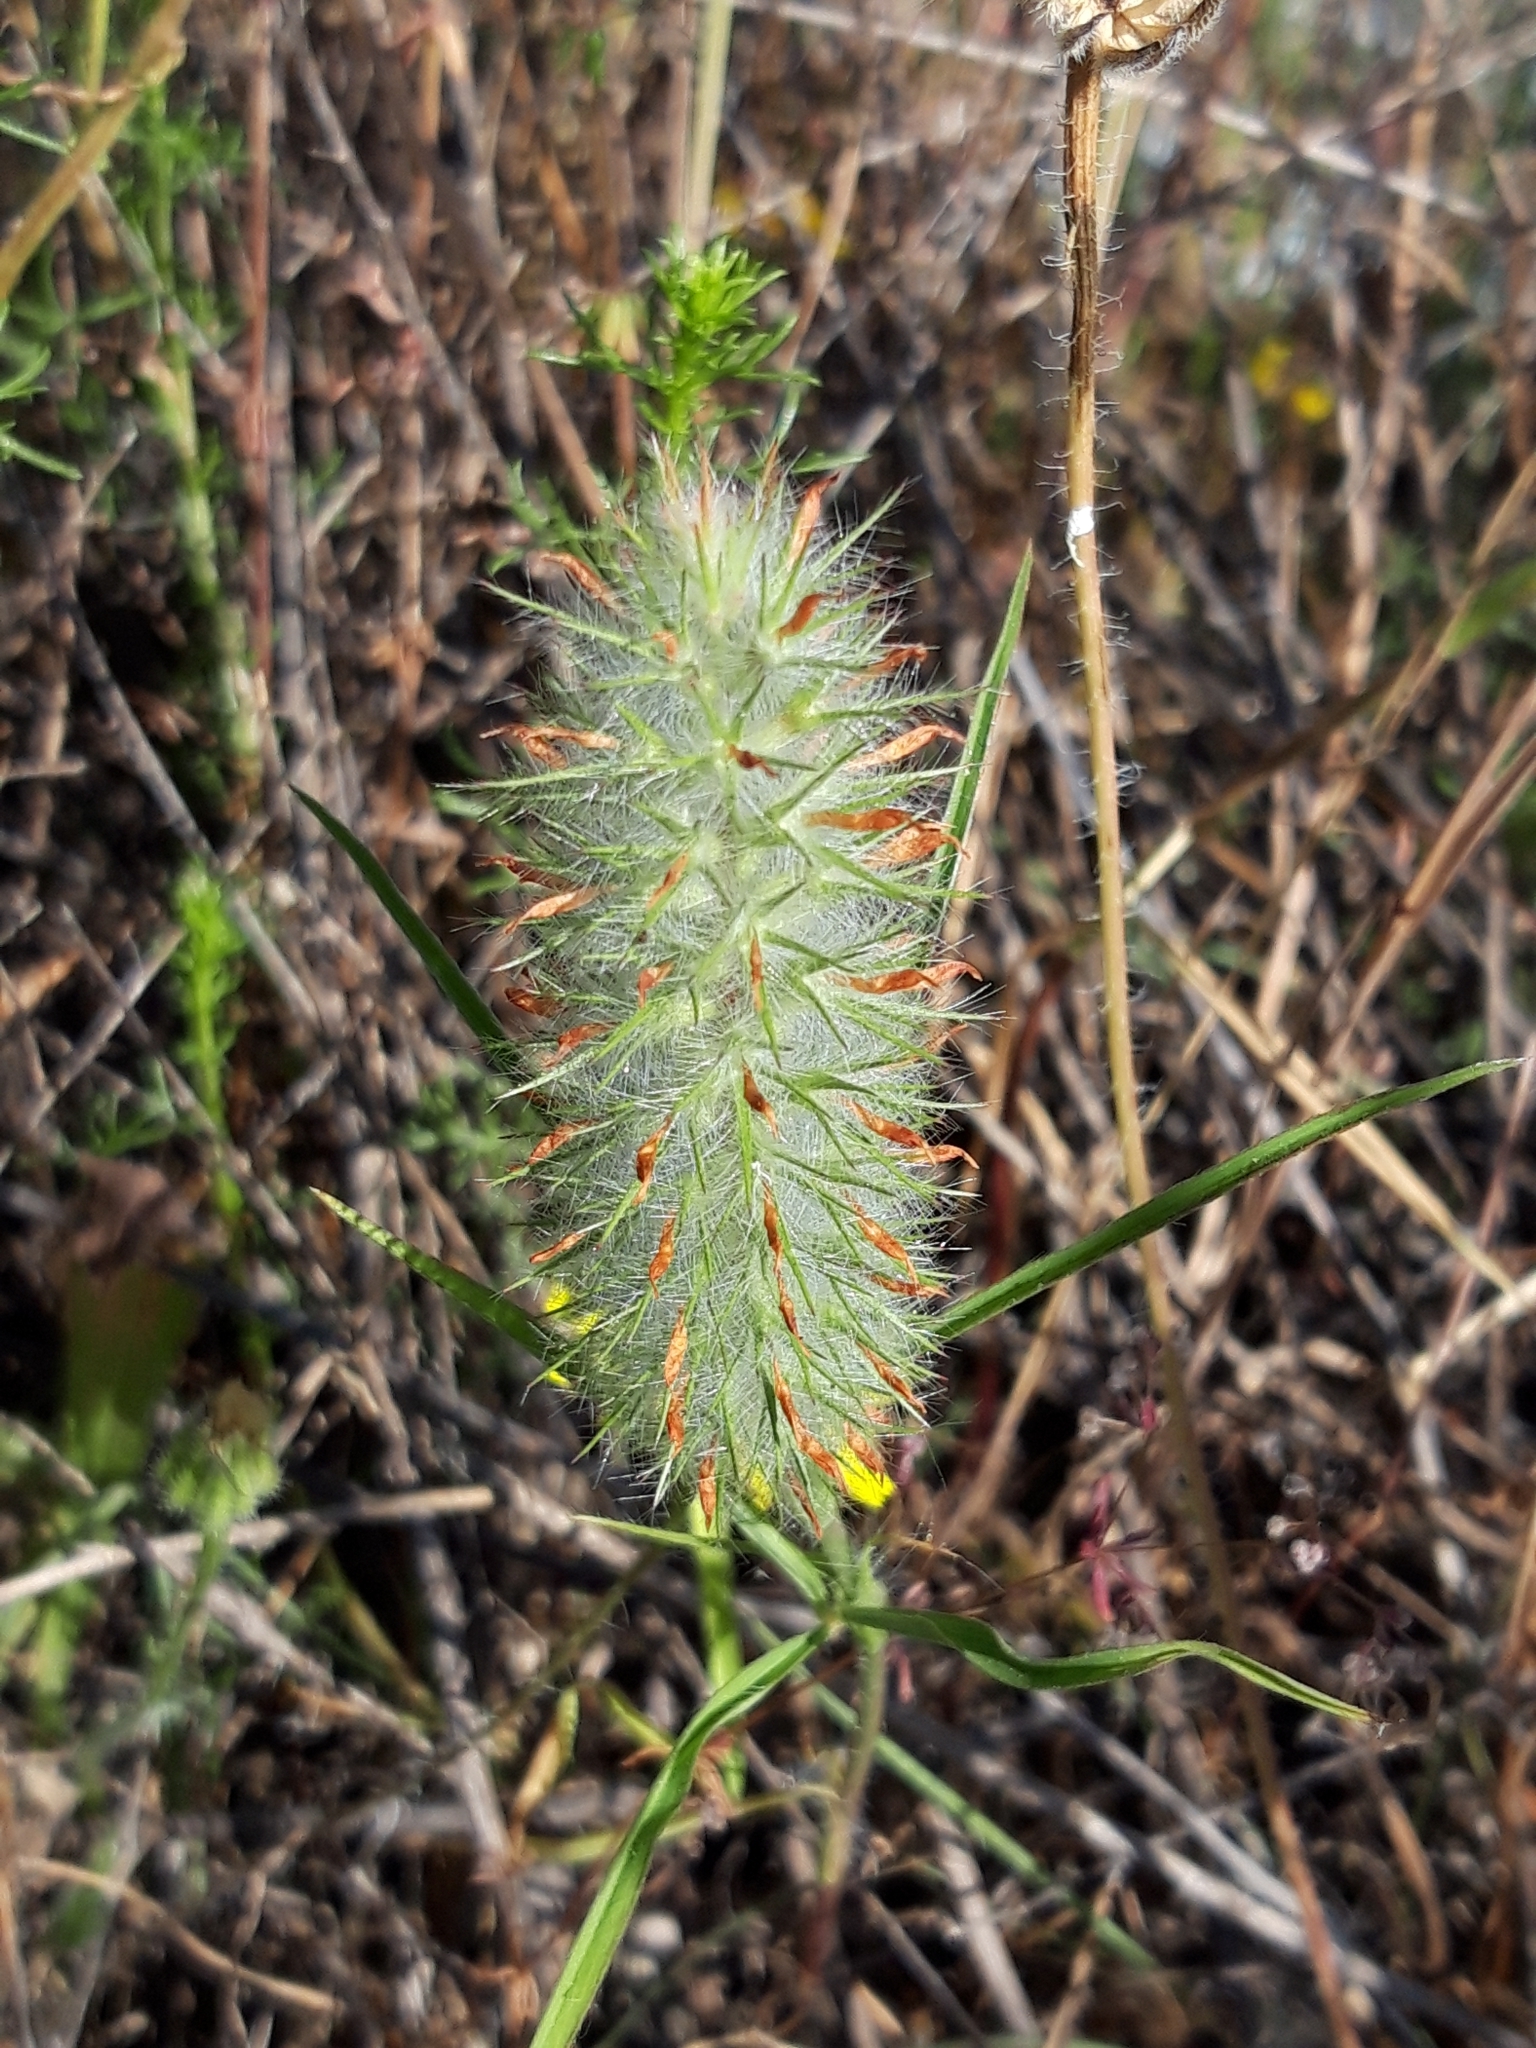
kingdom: Plantae
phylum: Tracheophyta
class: Magnoliopsida
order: Fabales
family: Fabaceae
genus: Trifolium
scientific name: Trifolium angustifolium
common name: Narrow clover
